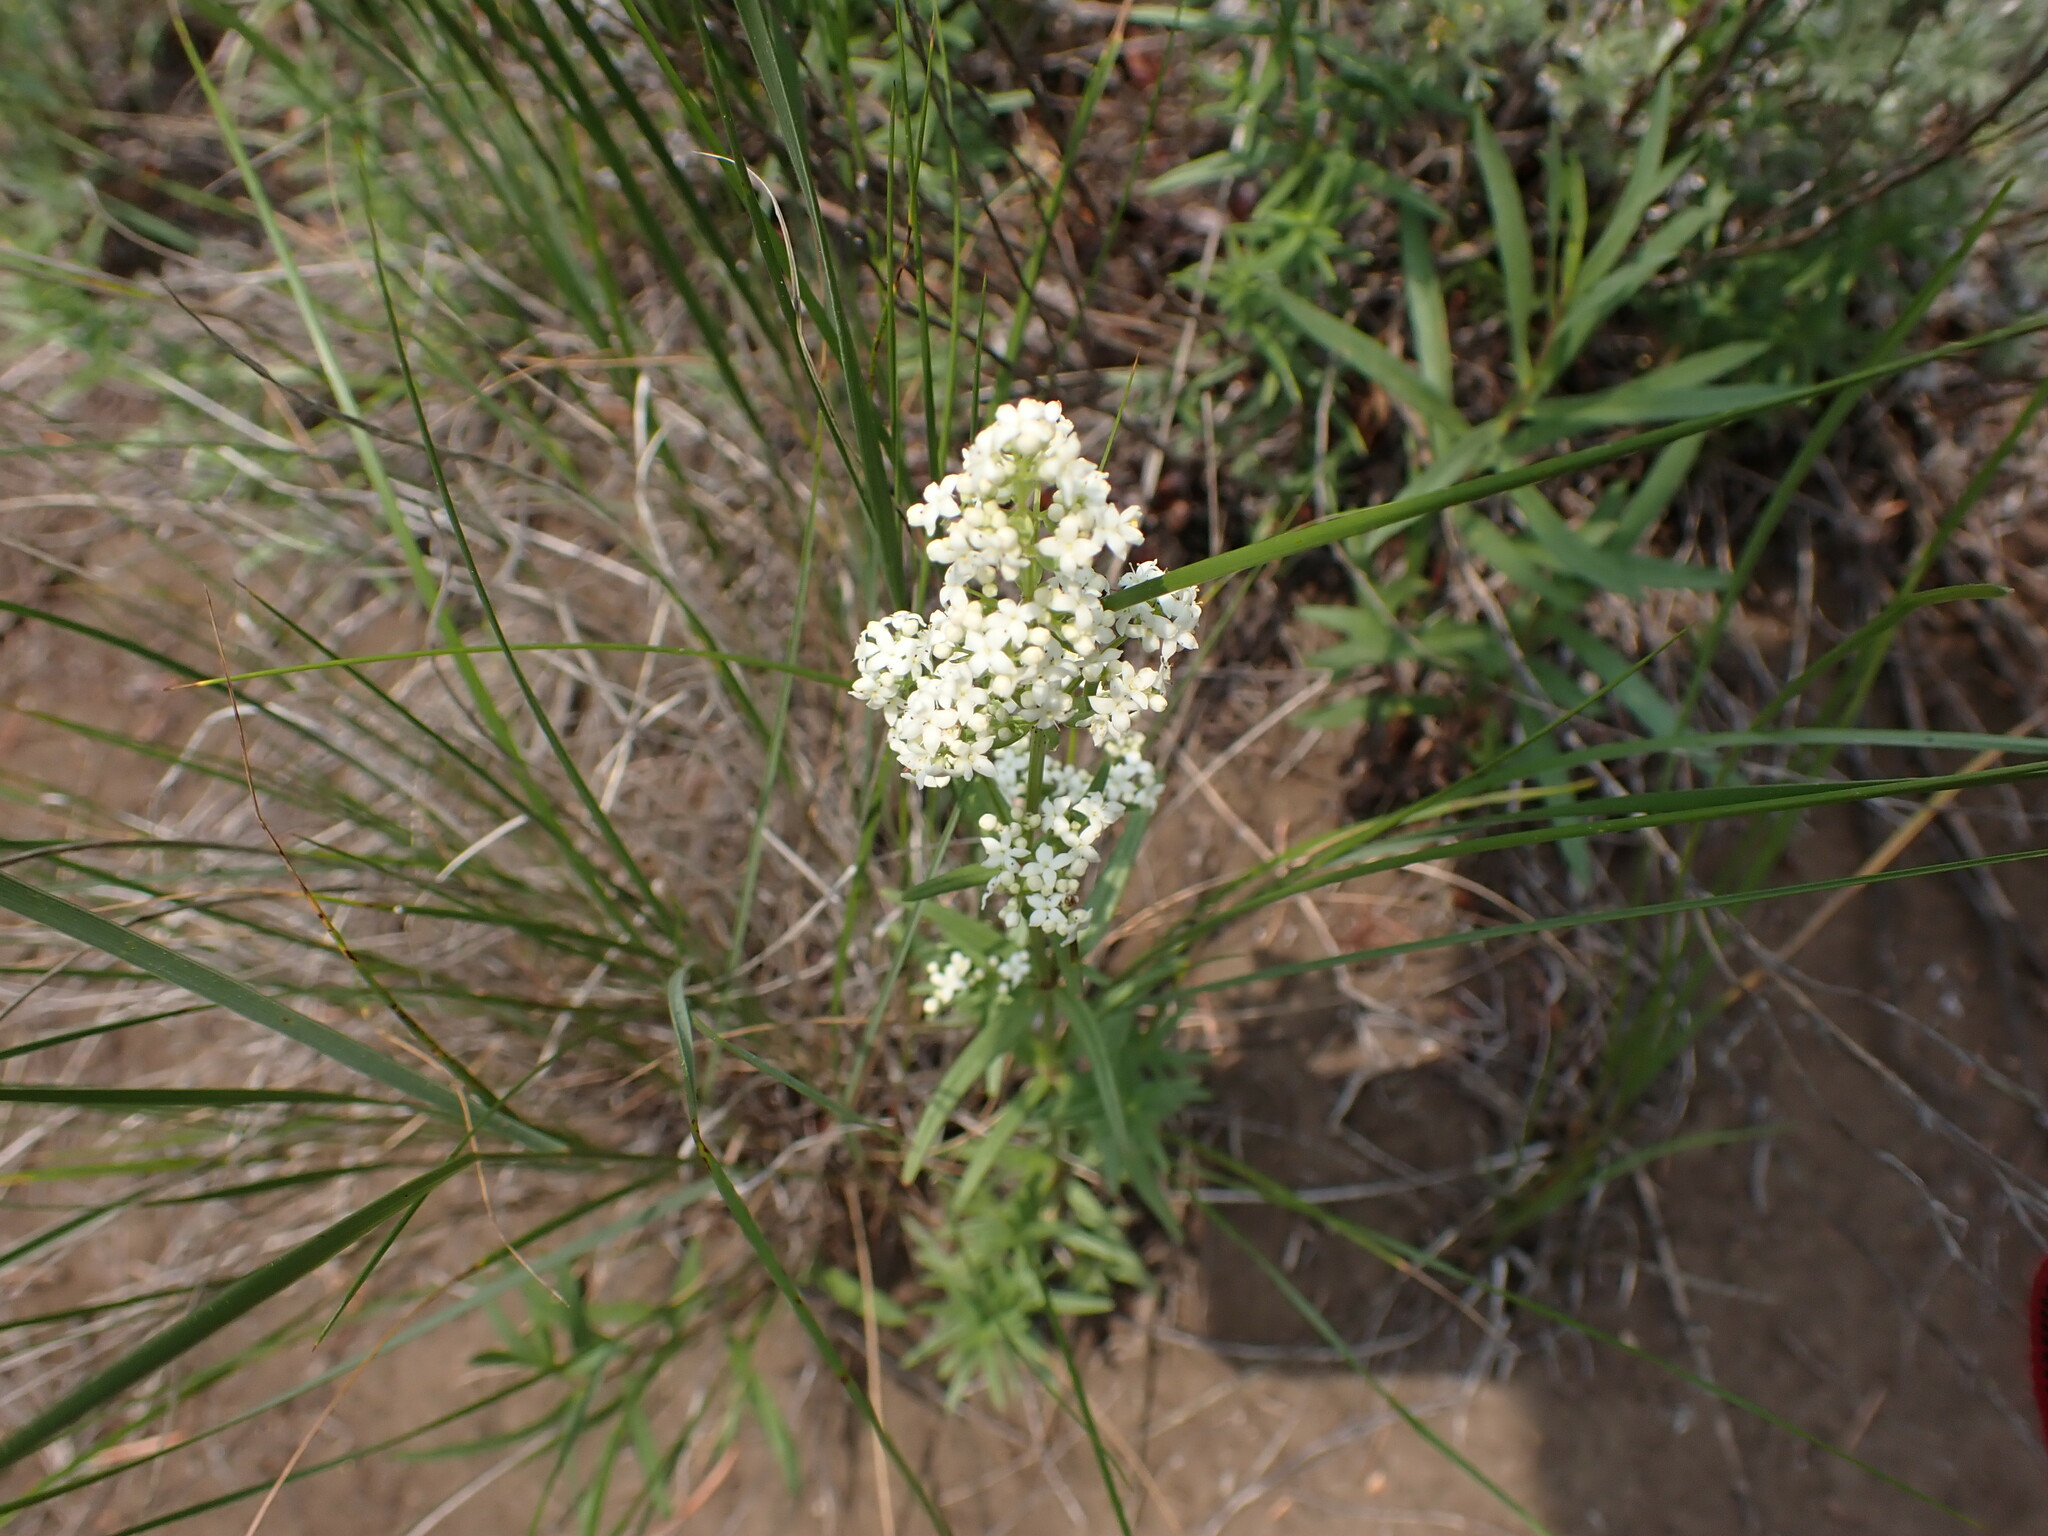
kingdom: Plantae
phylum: Tracheophyta
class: Magnoliopsida
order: Gentianales
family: Rubiaceae
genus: Galium
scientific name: Galium boreale
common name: Northern bedstraw
